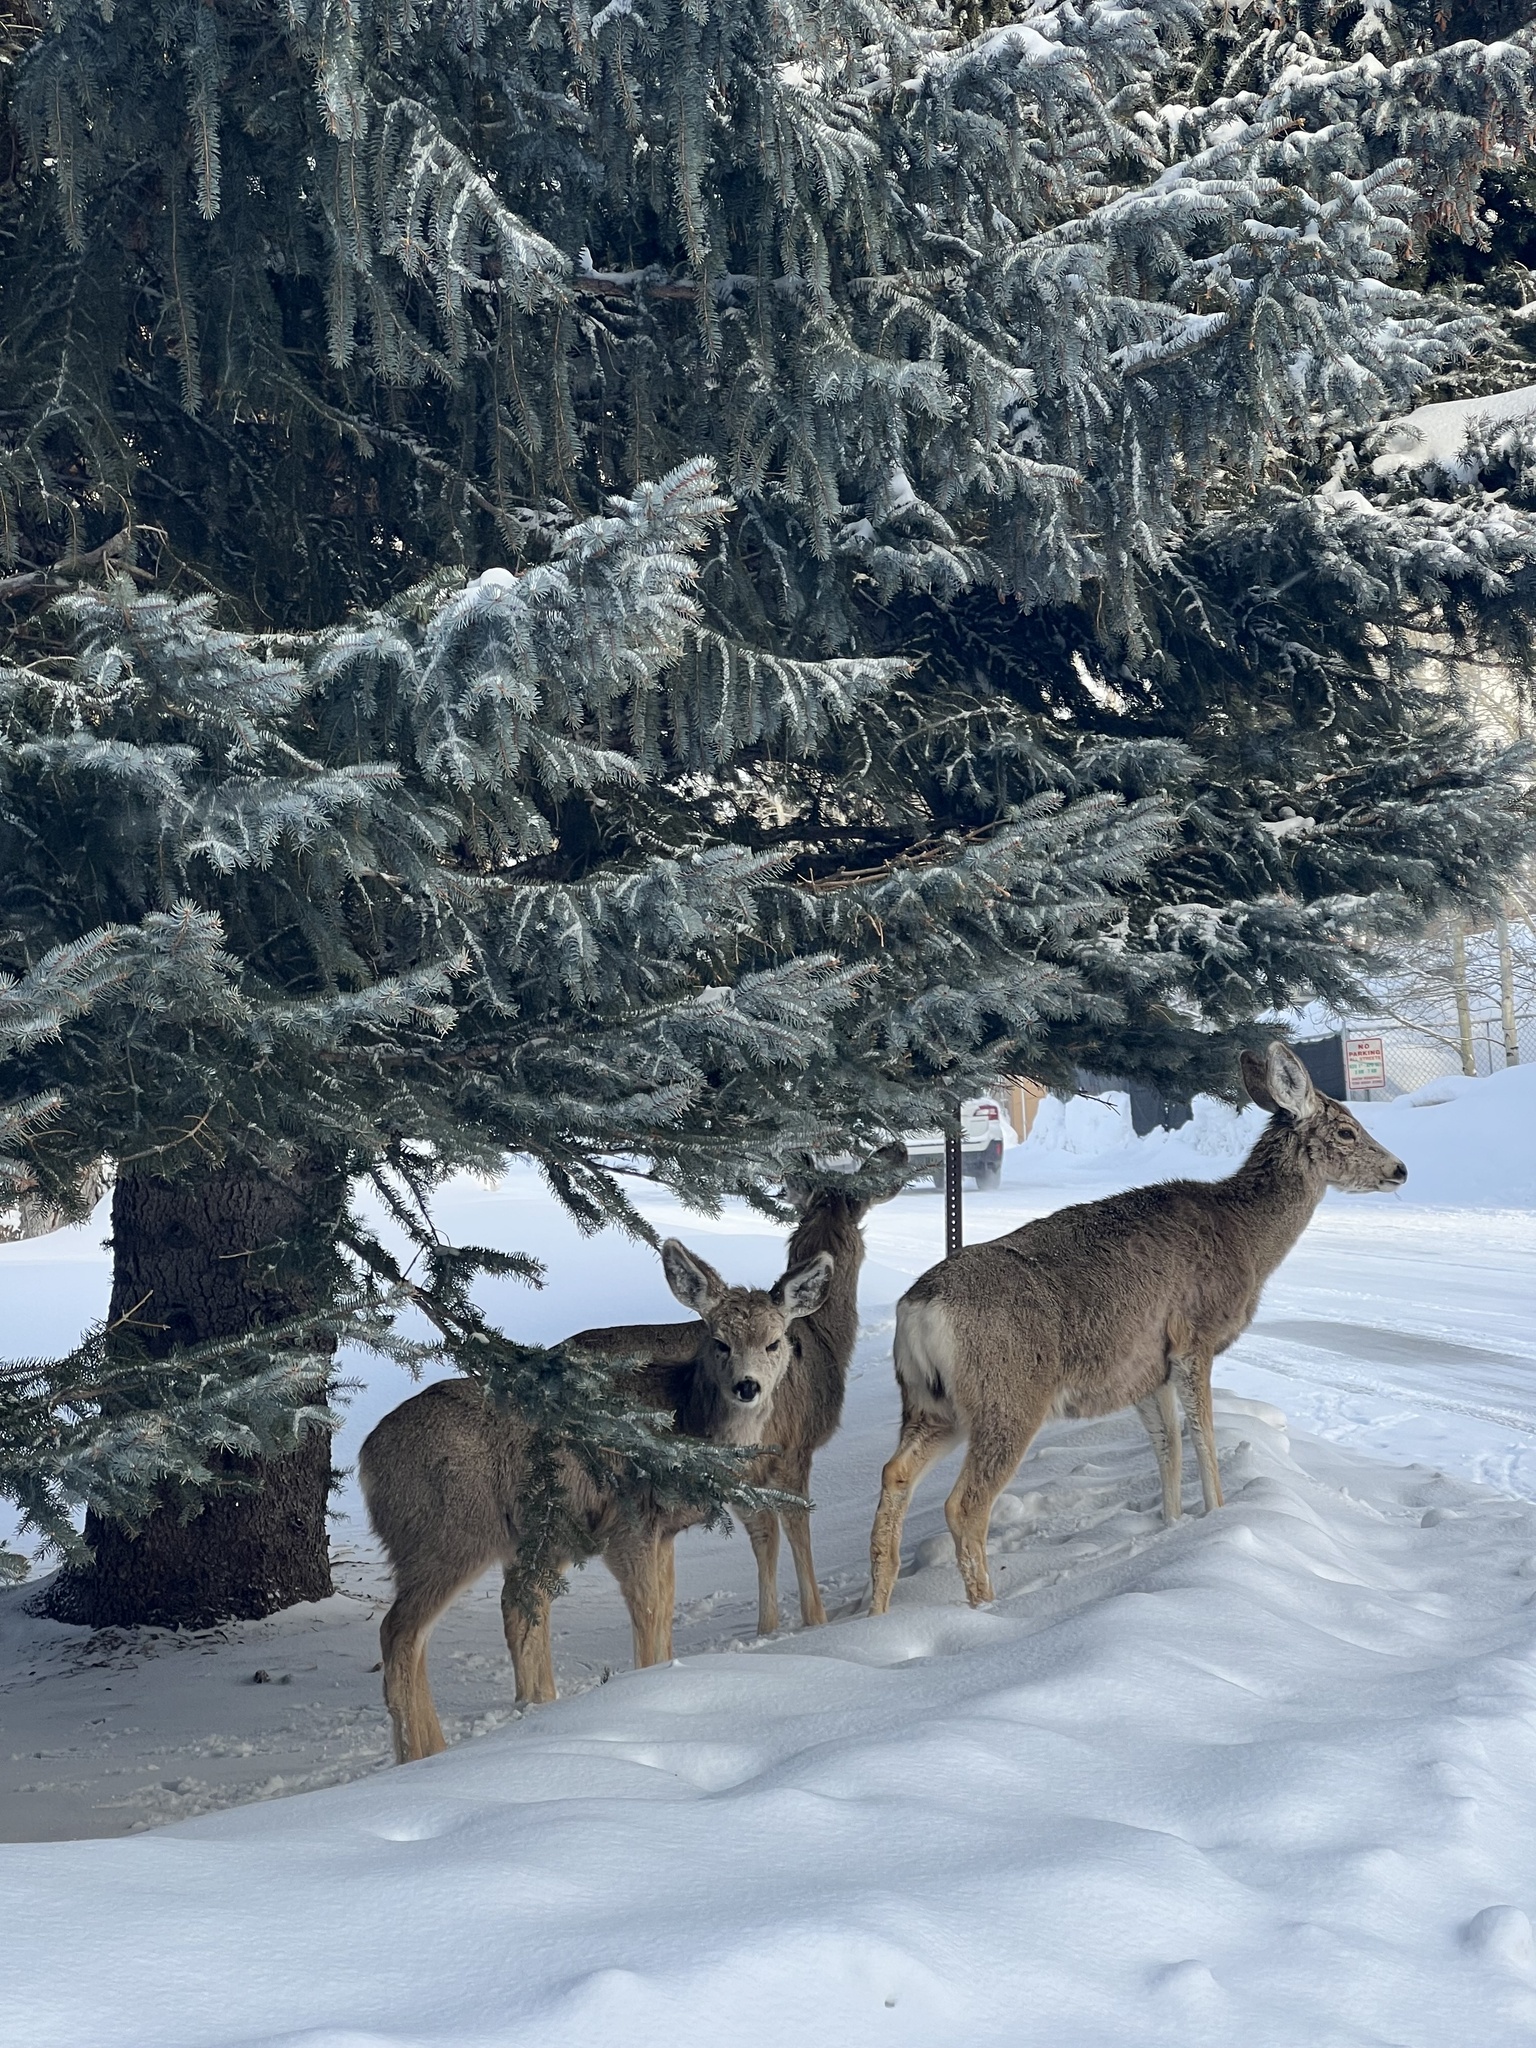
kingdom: Animalia
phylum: Chordata
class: Mammalia
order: Artiodactyla
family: Cervidae
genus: Odocoileus
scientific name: Odocoileus hemionus
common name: Mule deer
